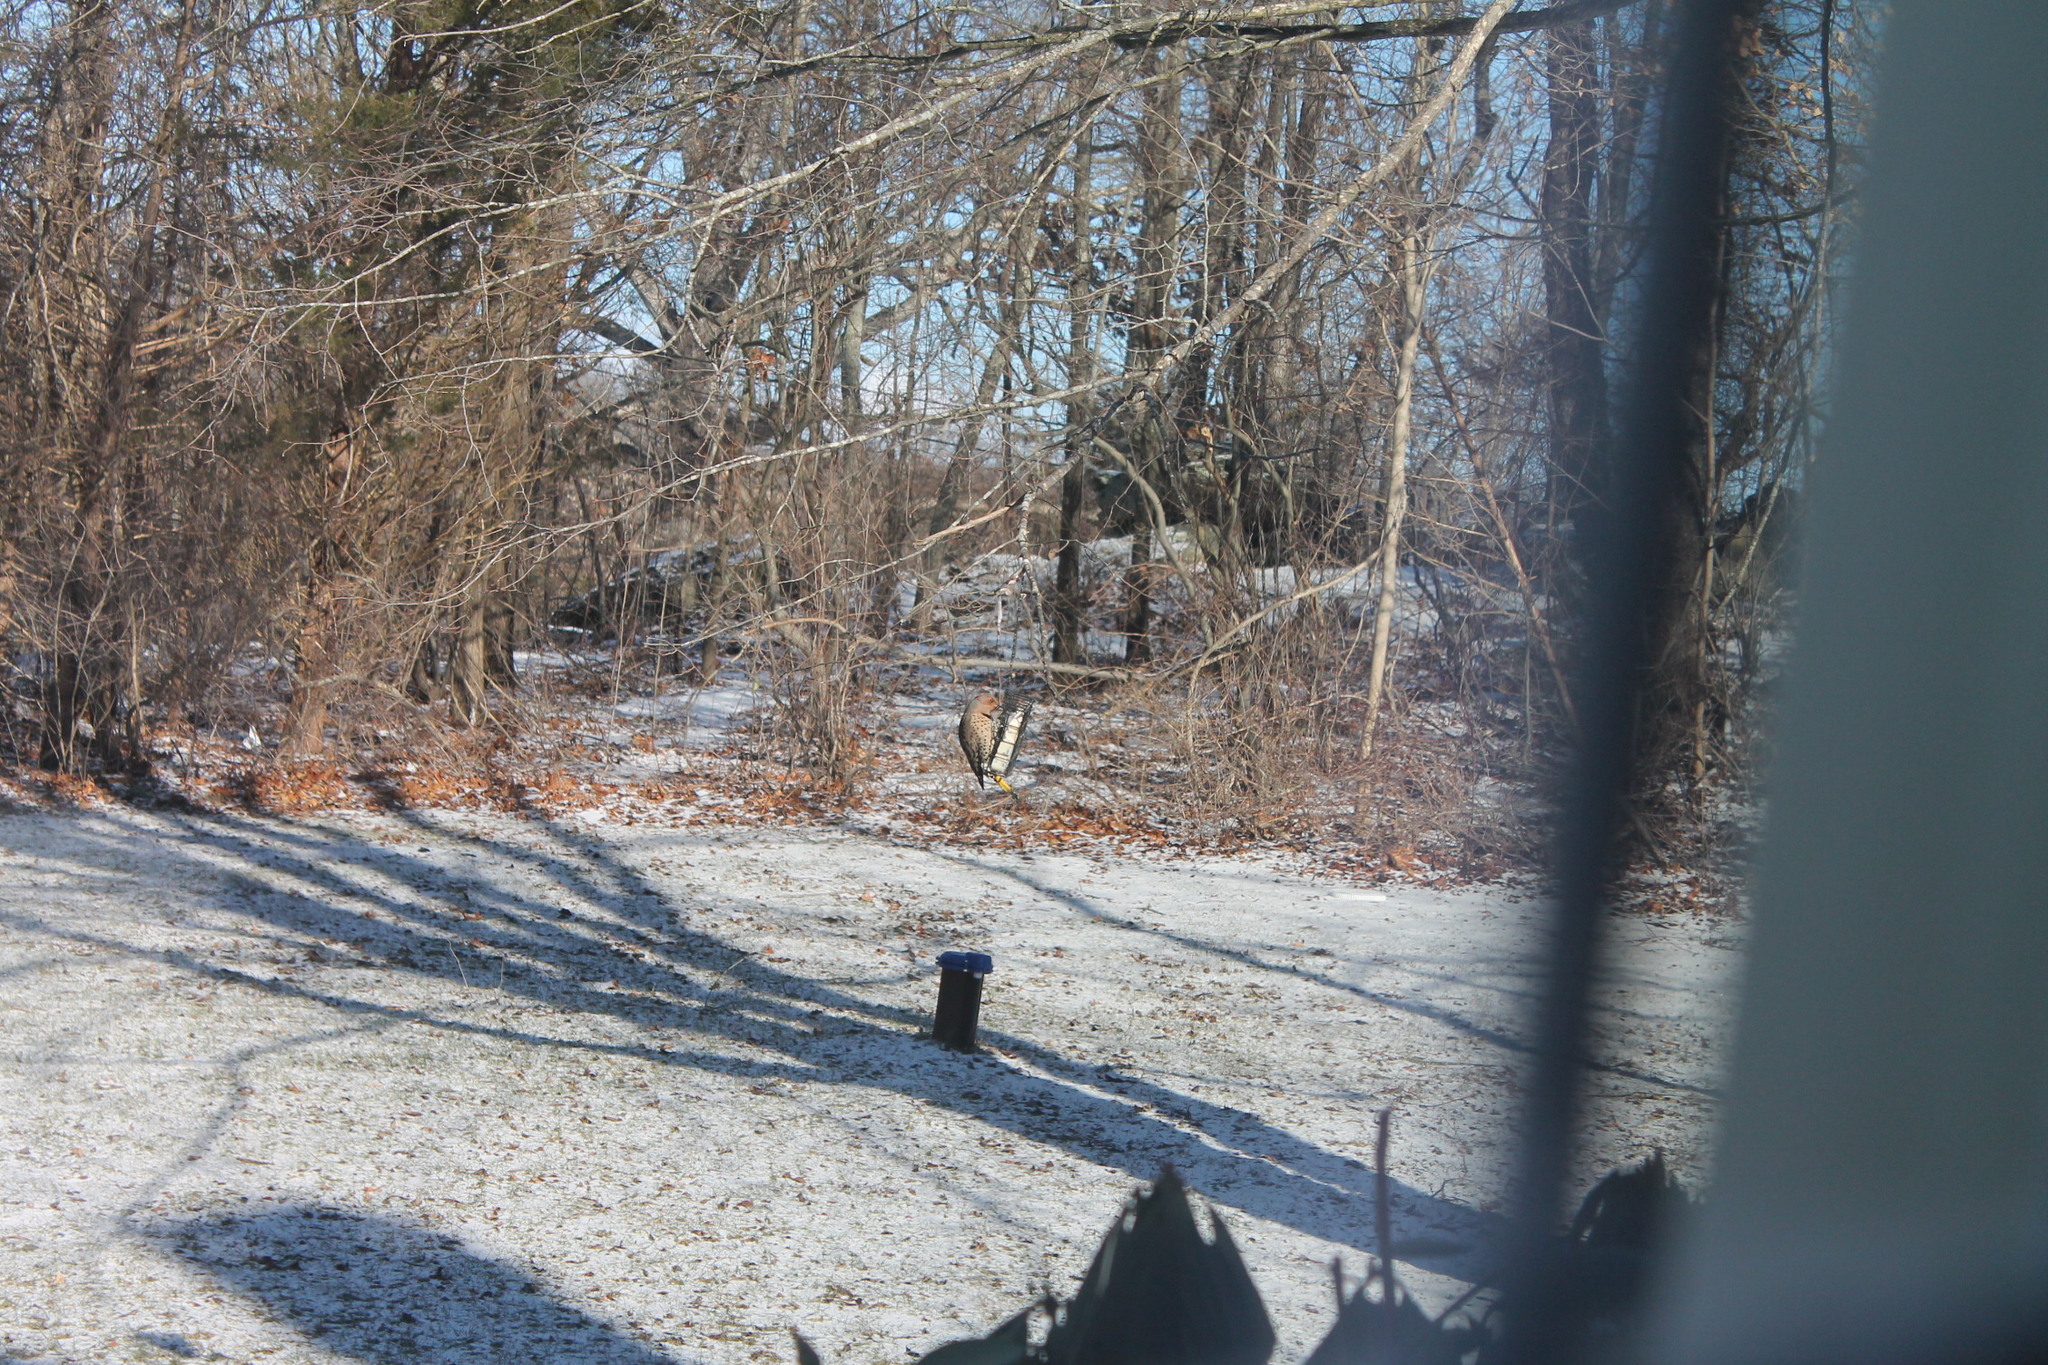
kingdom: Animalia
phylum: Chordata
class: Aves
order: Piciformes
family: Picidae
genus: Colaptes
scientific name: Colaptes auratus
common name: Northern flicker
